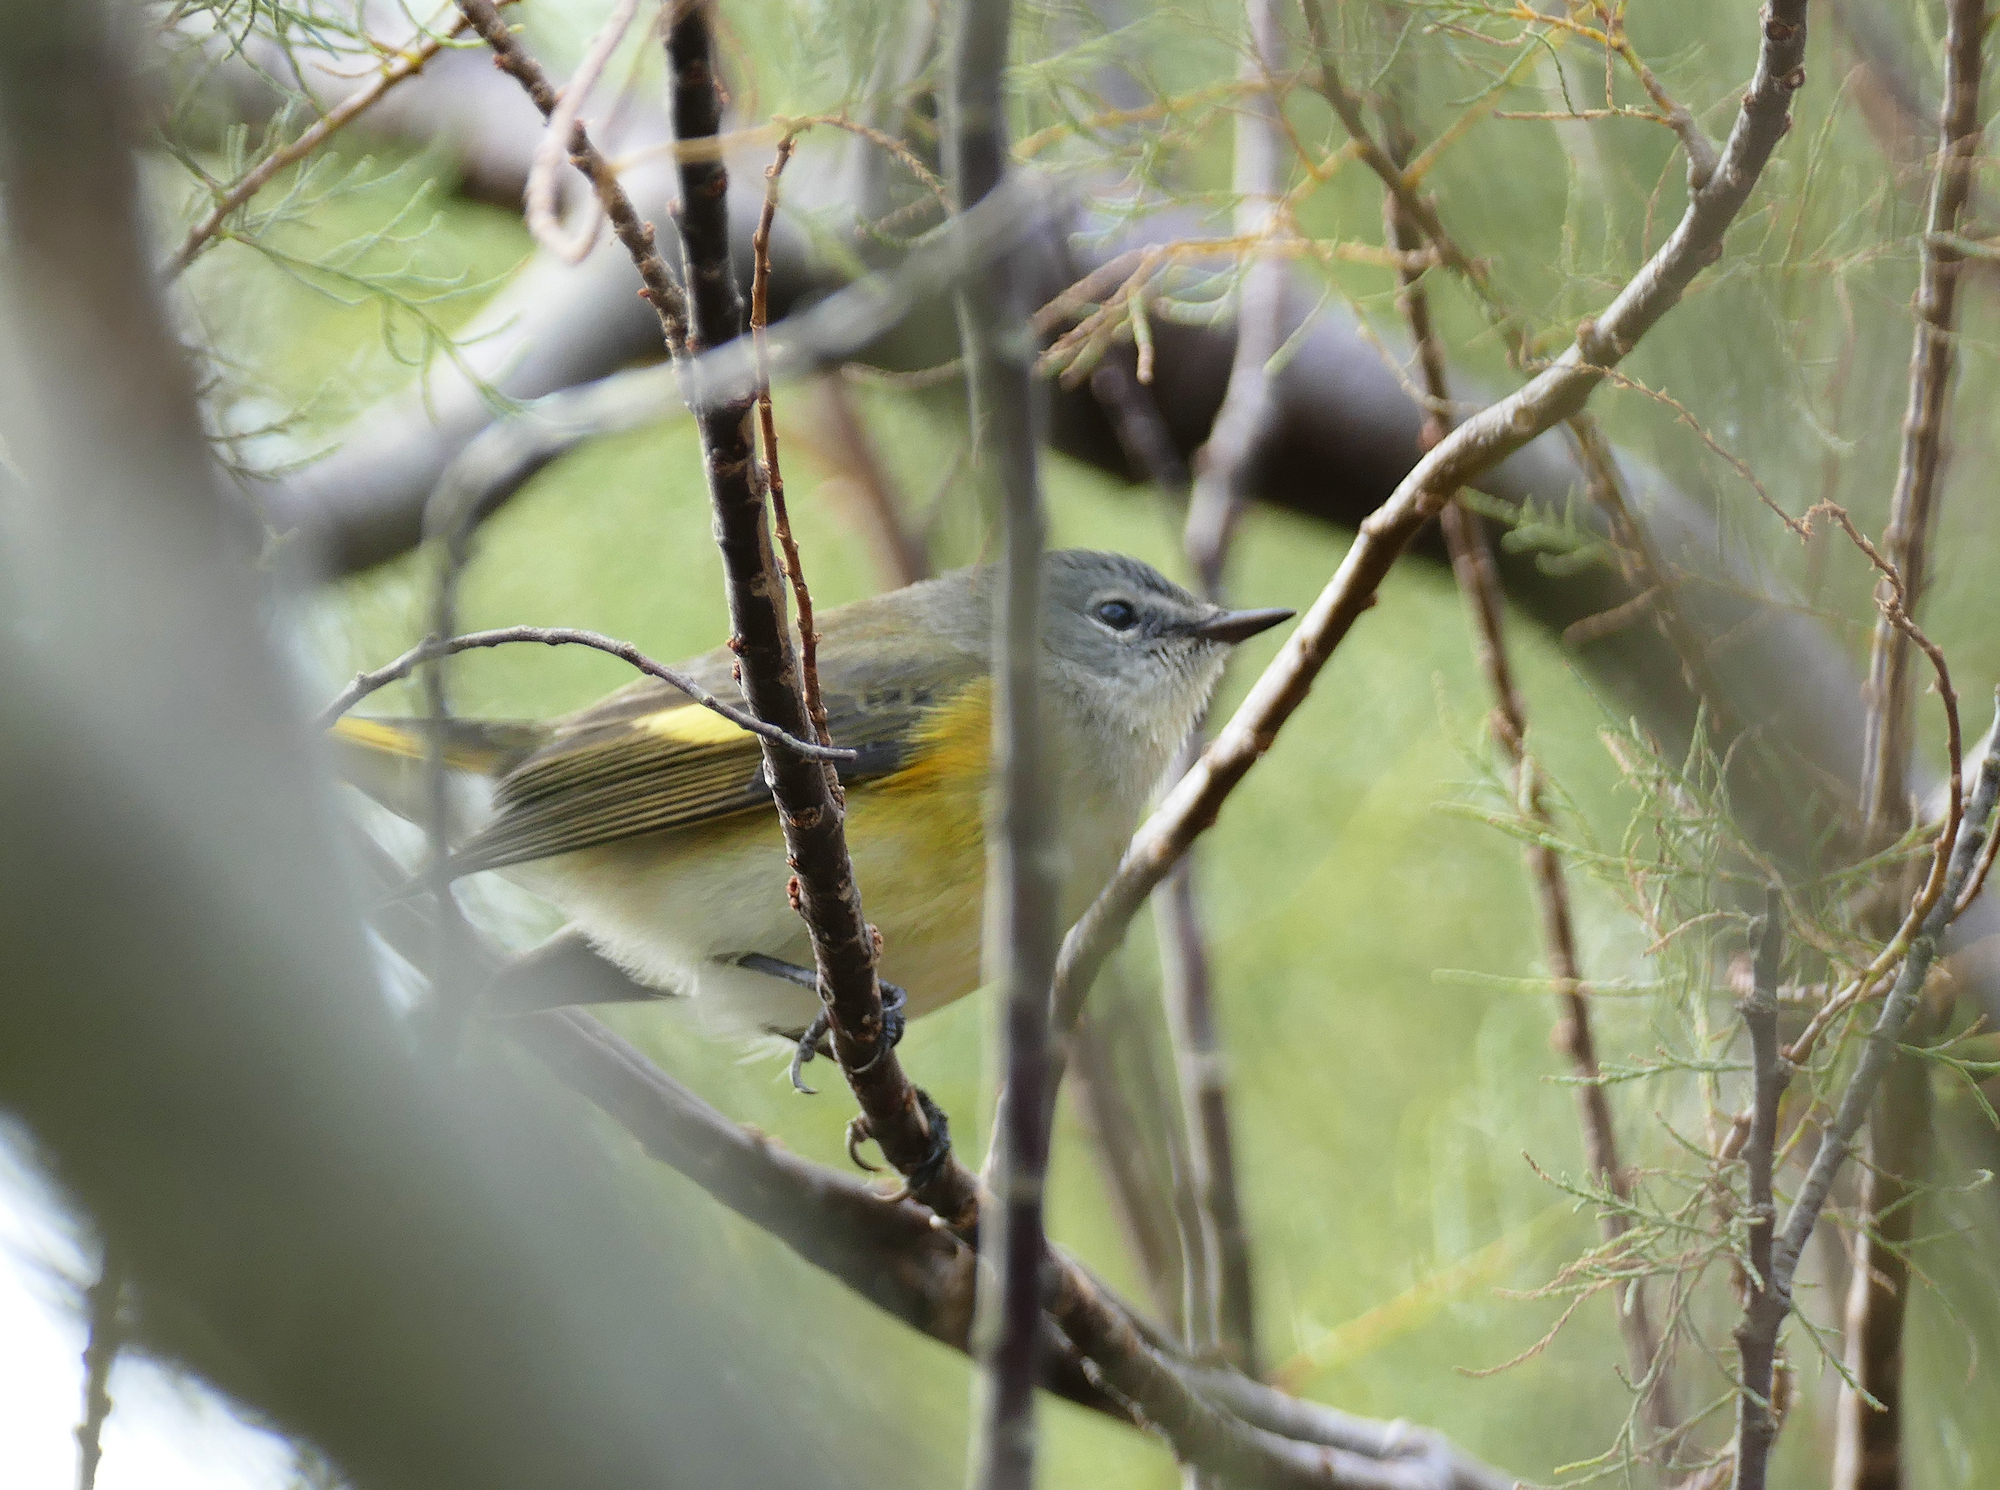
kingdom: Animalia
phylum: Chordata
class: Aves
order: Passeriformes
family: Parulidae
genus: Setophaga
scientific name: Setophaga ruticilla
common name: American redstart
